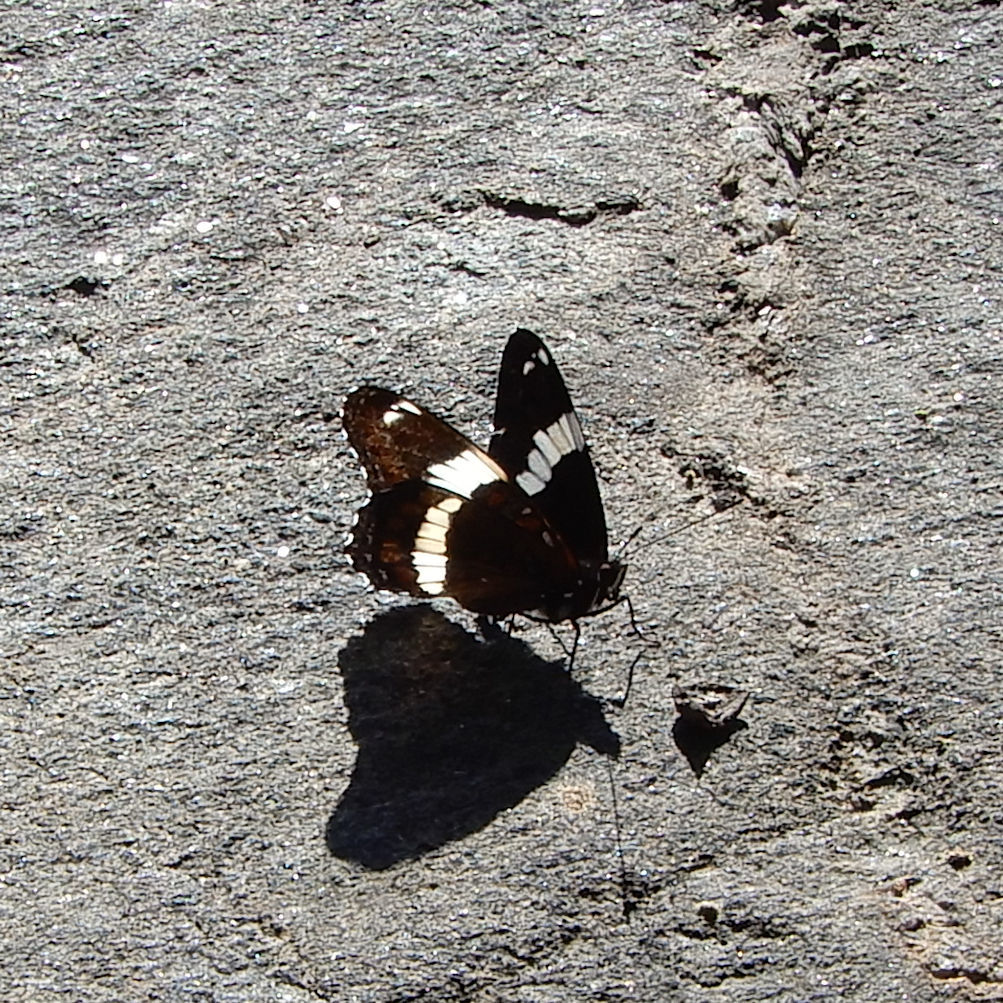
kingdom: Animalia
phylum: Arthropoda
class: Insecta
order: Lepidoptera
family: Nymphalidae
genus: Limenitis
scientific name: Limenitis arthemis
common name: Red-spotted admiral
